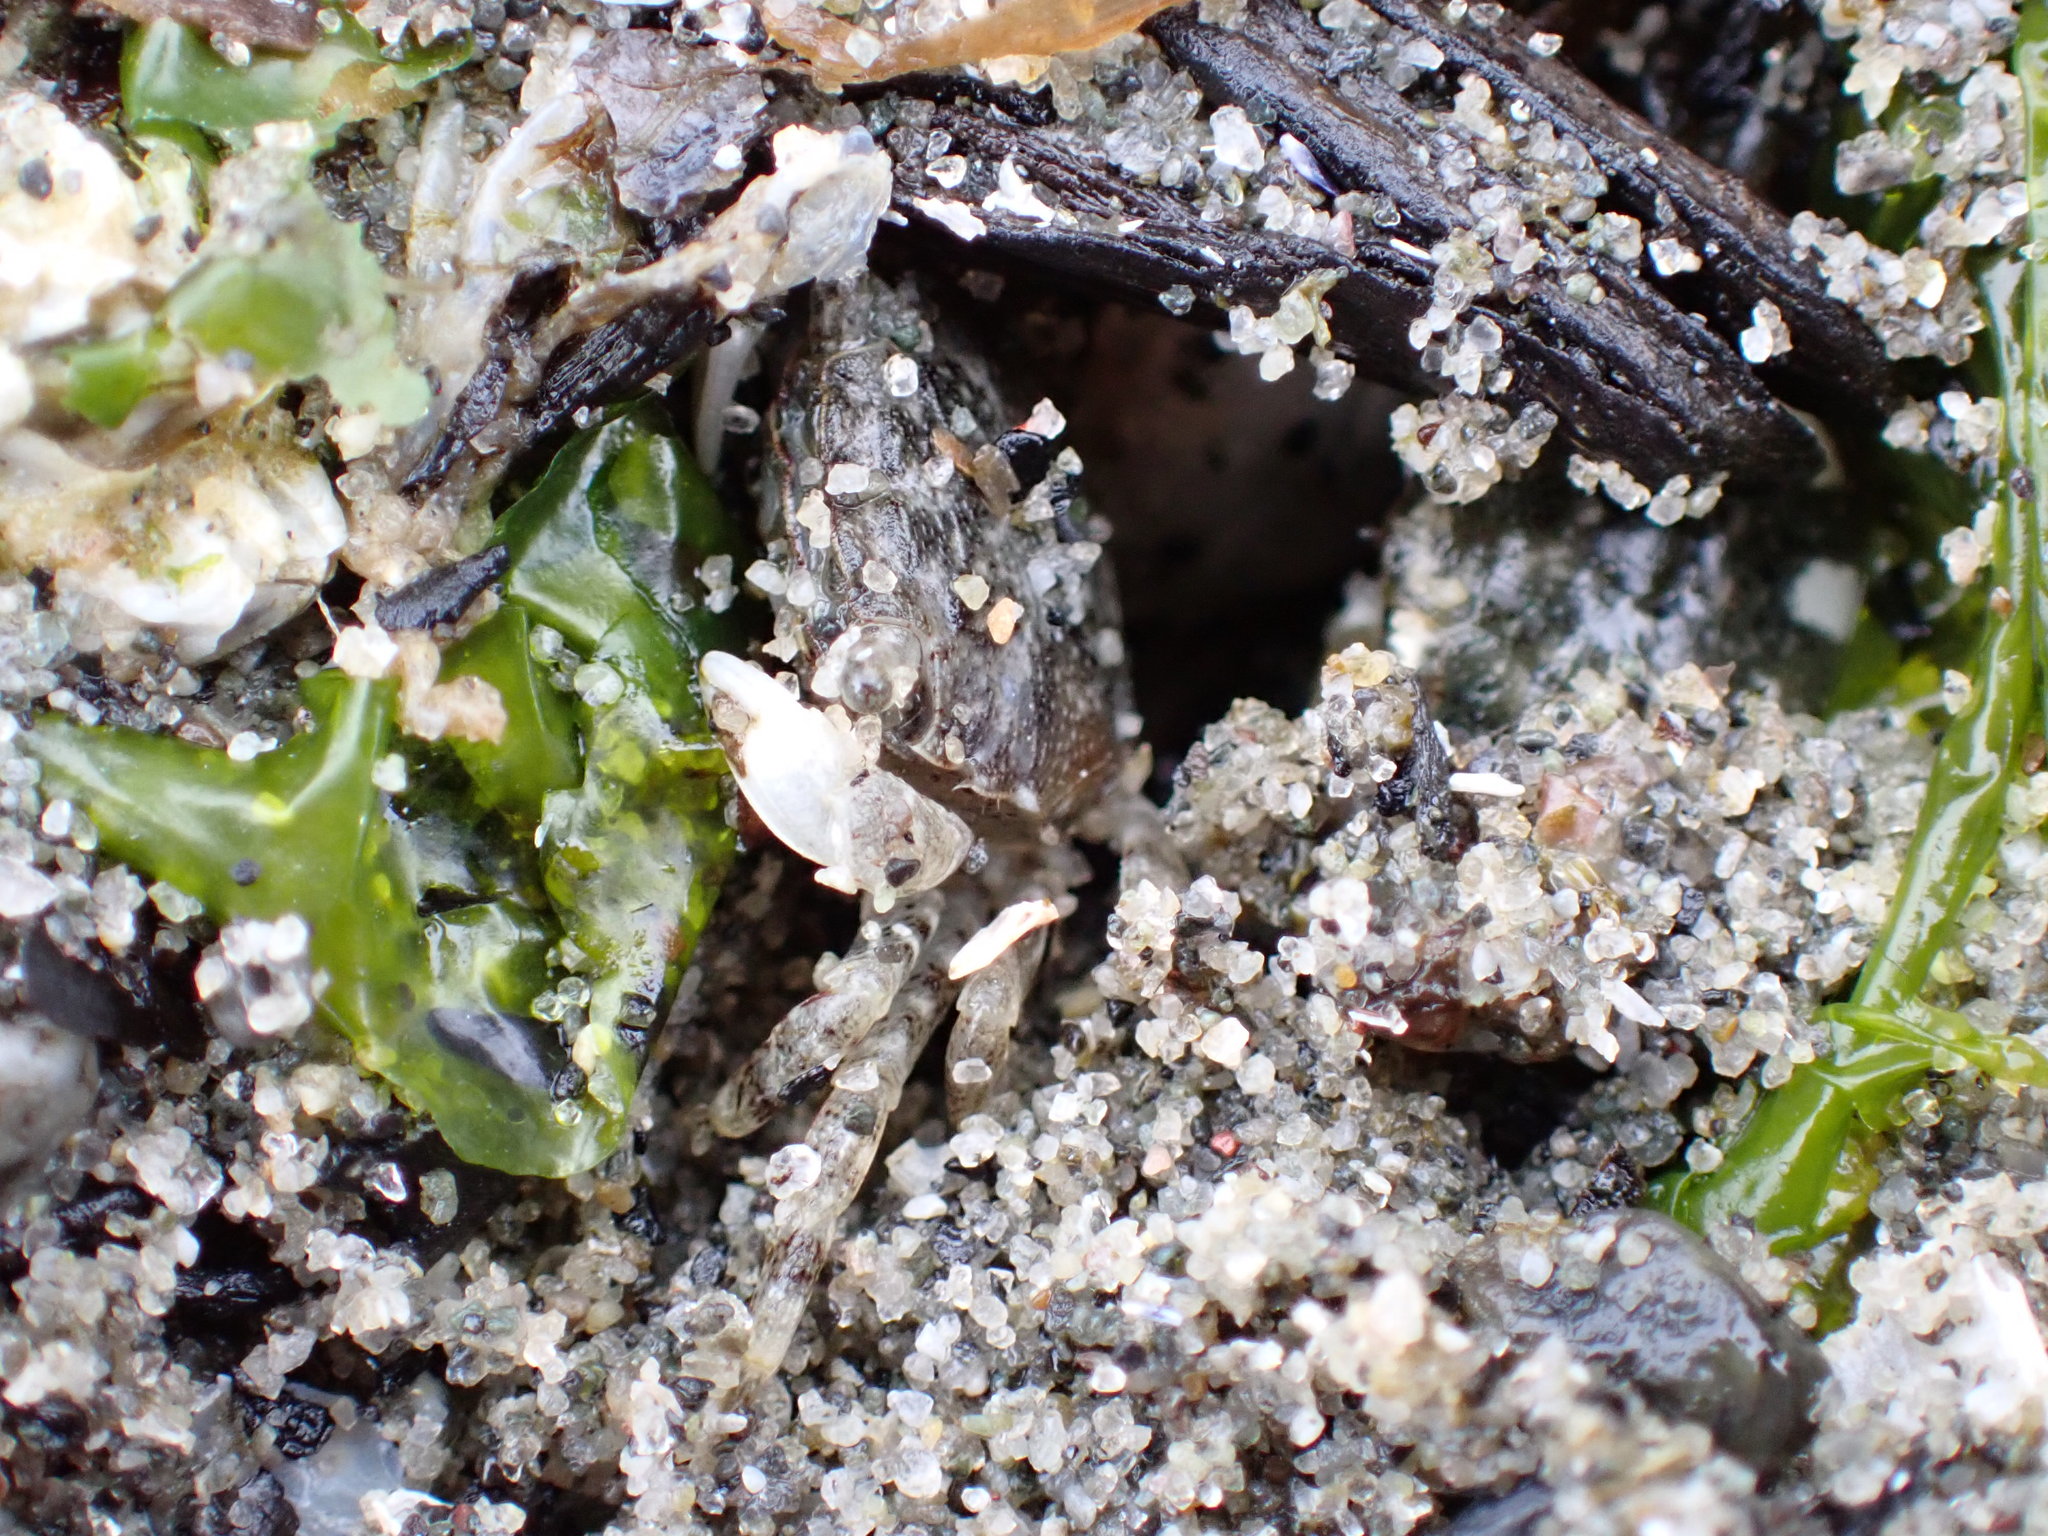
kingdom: Animalia
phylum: Arthropoda
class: Malacostraca
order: Decapoda
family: Varunidae
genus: Hemigrapsus
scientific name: Hemigrapsus oregonensis
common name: Yellow shore crab
